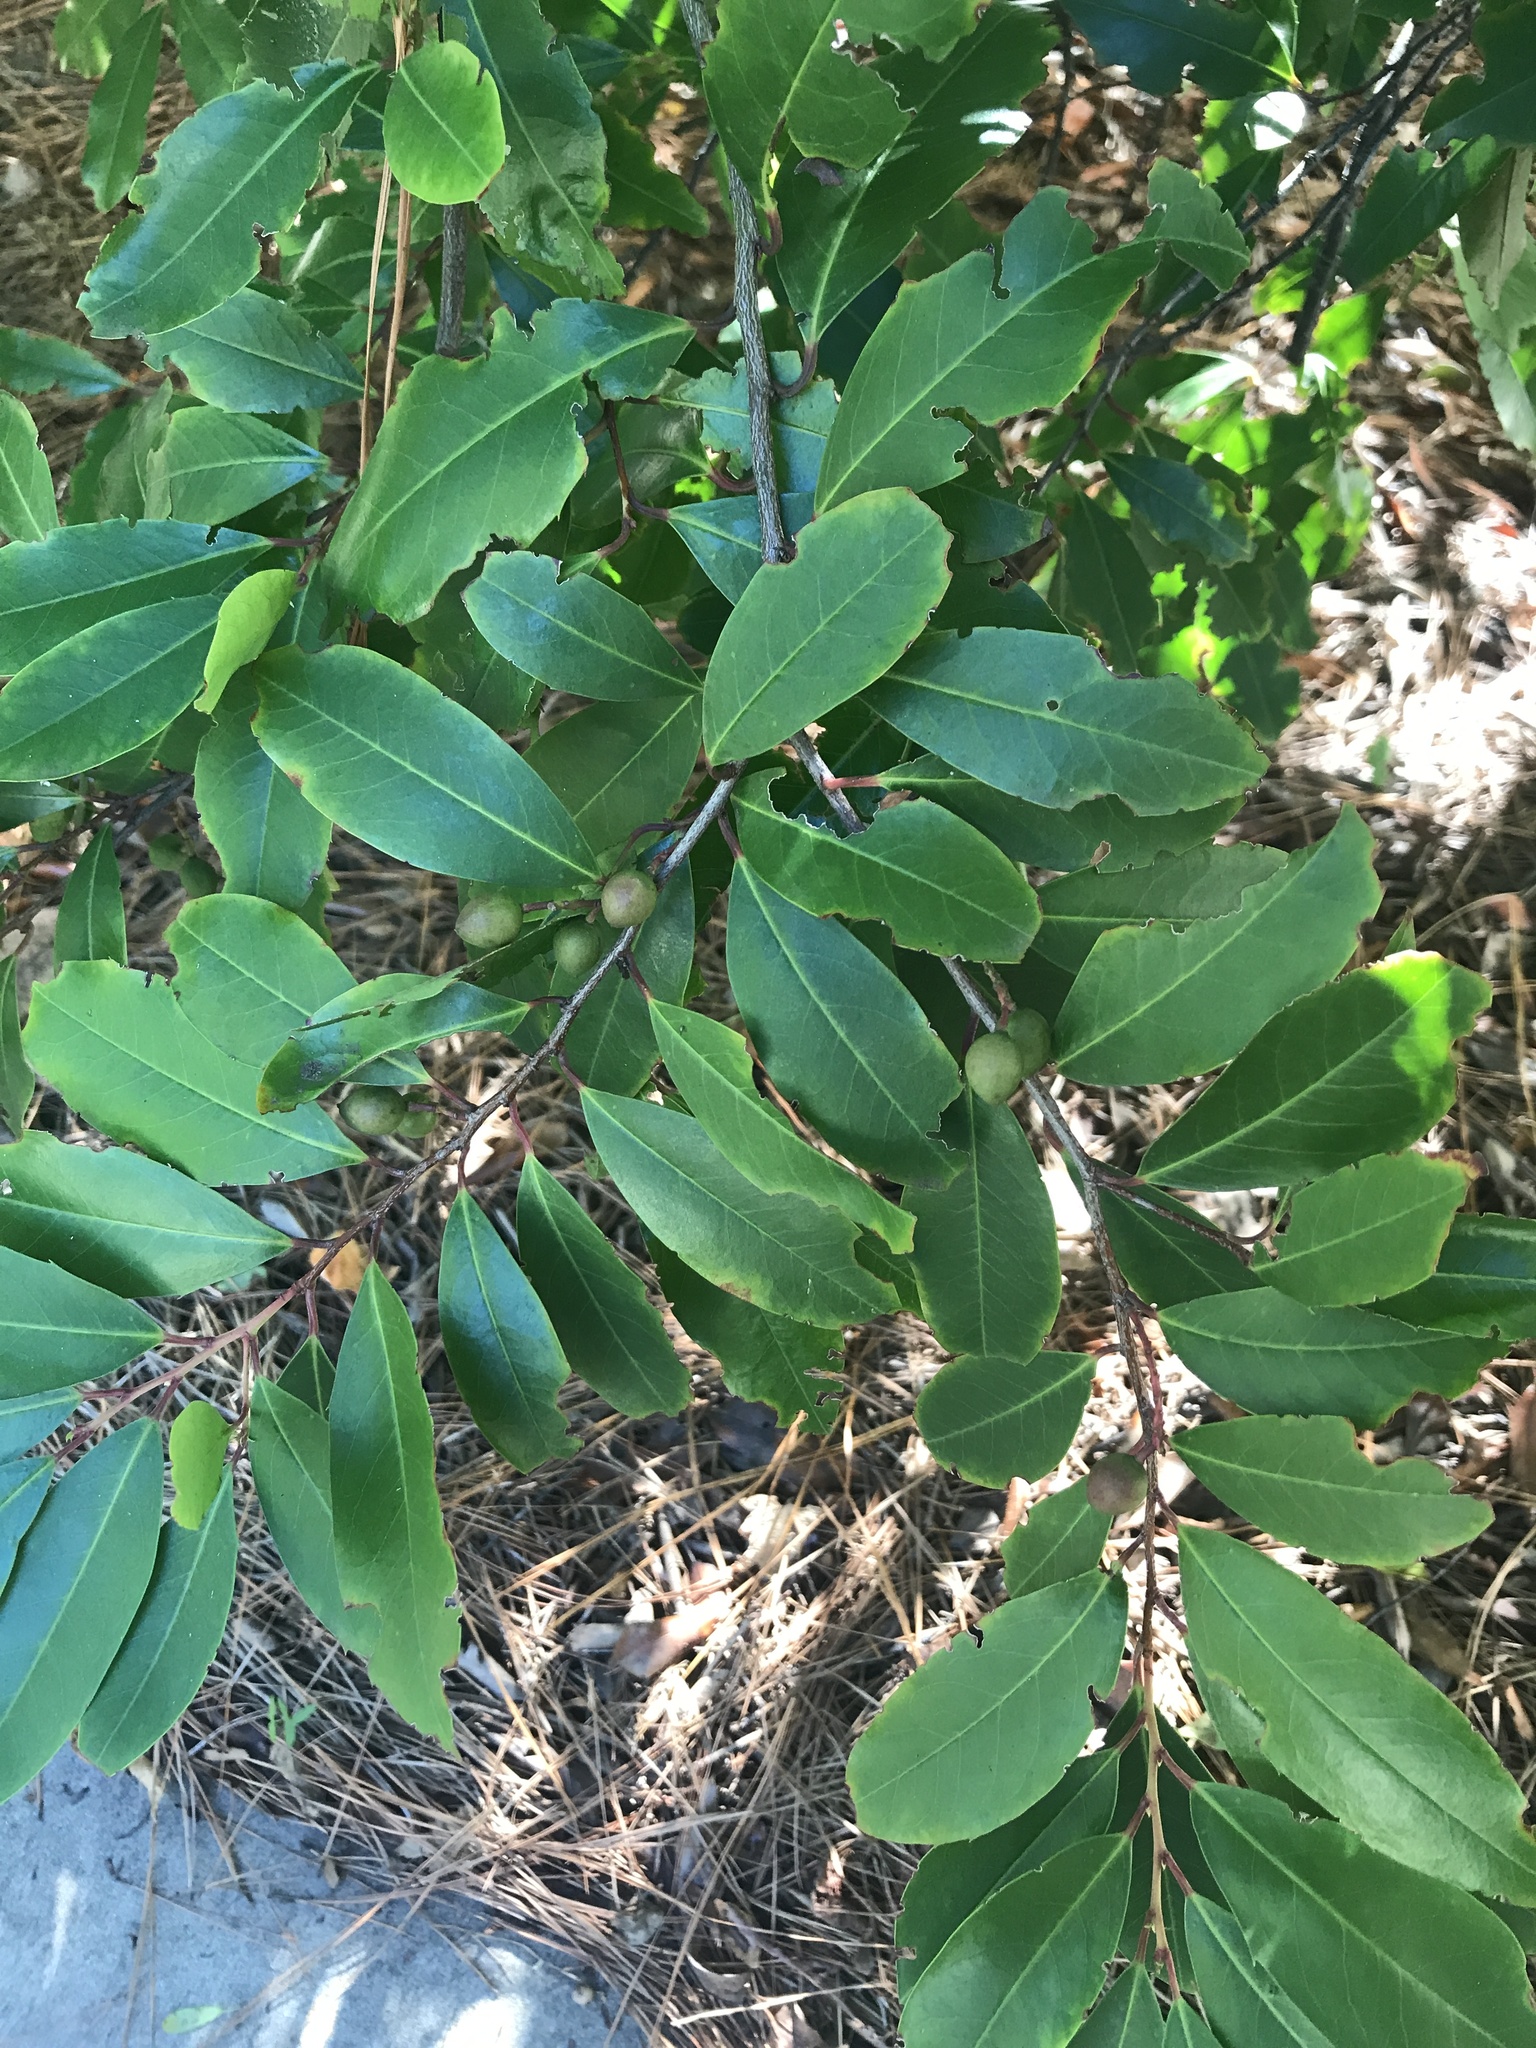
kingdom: Plantae
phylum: Tracheophyta
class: Magnoliopsida
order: Rosales
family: Rosaceae
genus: Prunus
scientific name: Prunus caroliniana
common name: Carolina laurel cherry
